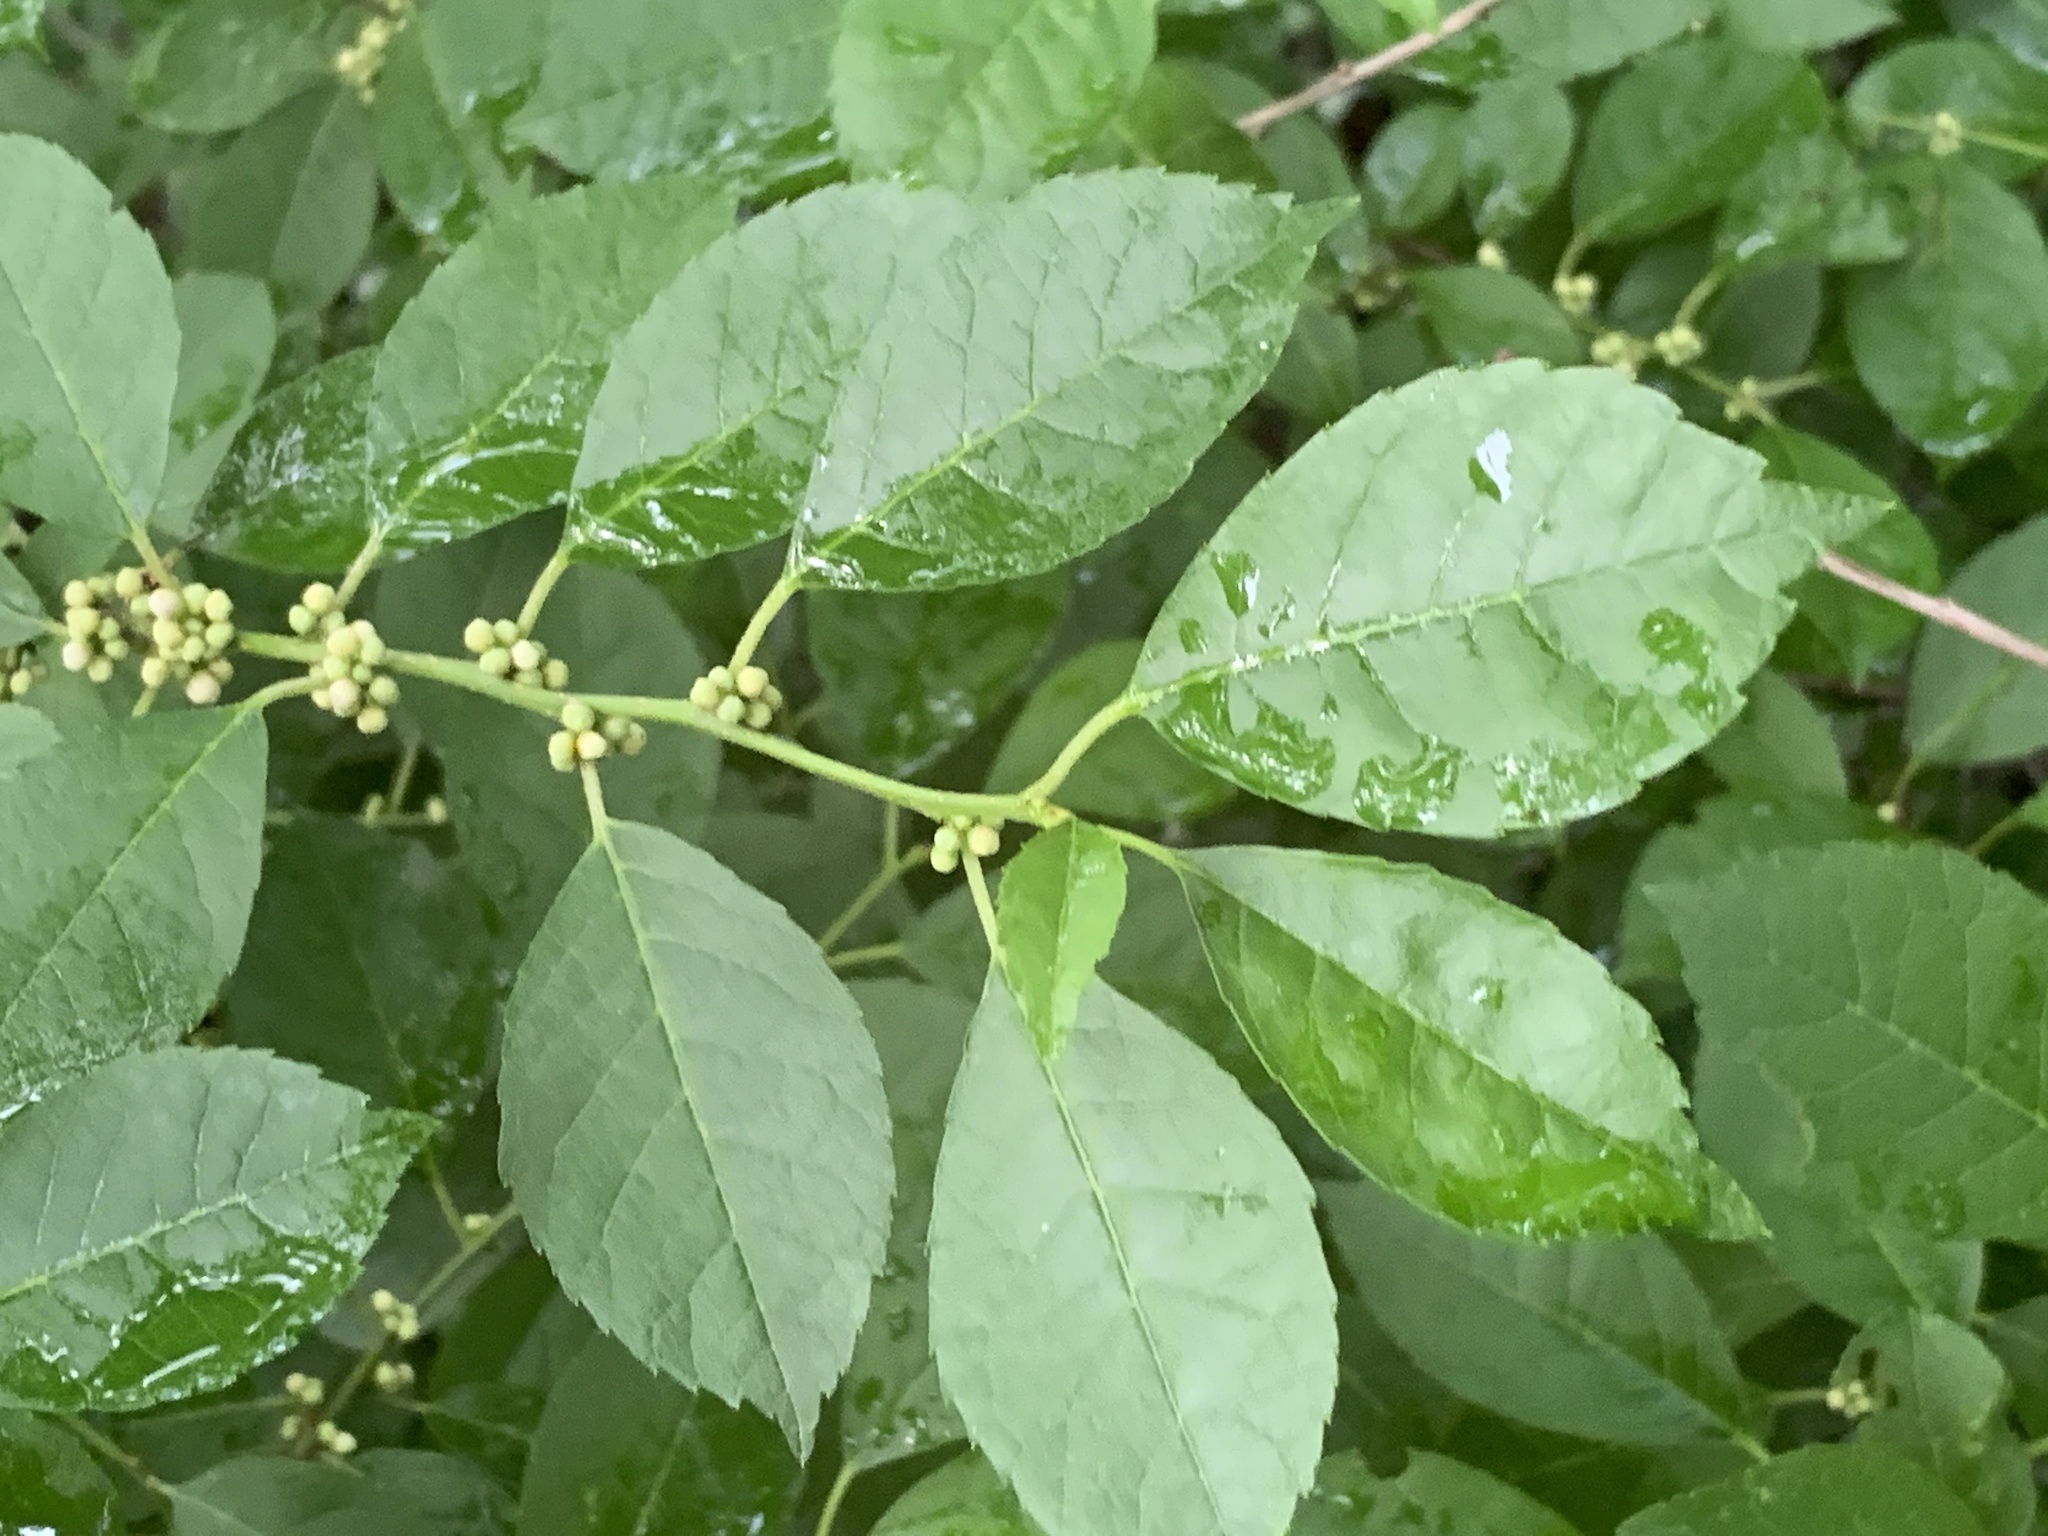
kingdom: Plantae
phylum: Tracheophyta
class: Magnoliopsida
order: Aquifoliales
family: Aquifoliaceae
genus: Ilex
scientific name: Ilex verticillata
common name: Virginia winterberry
